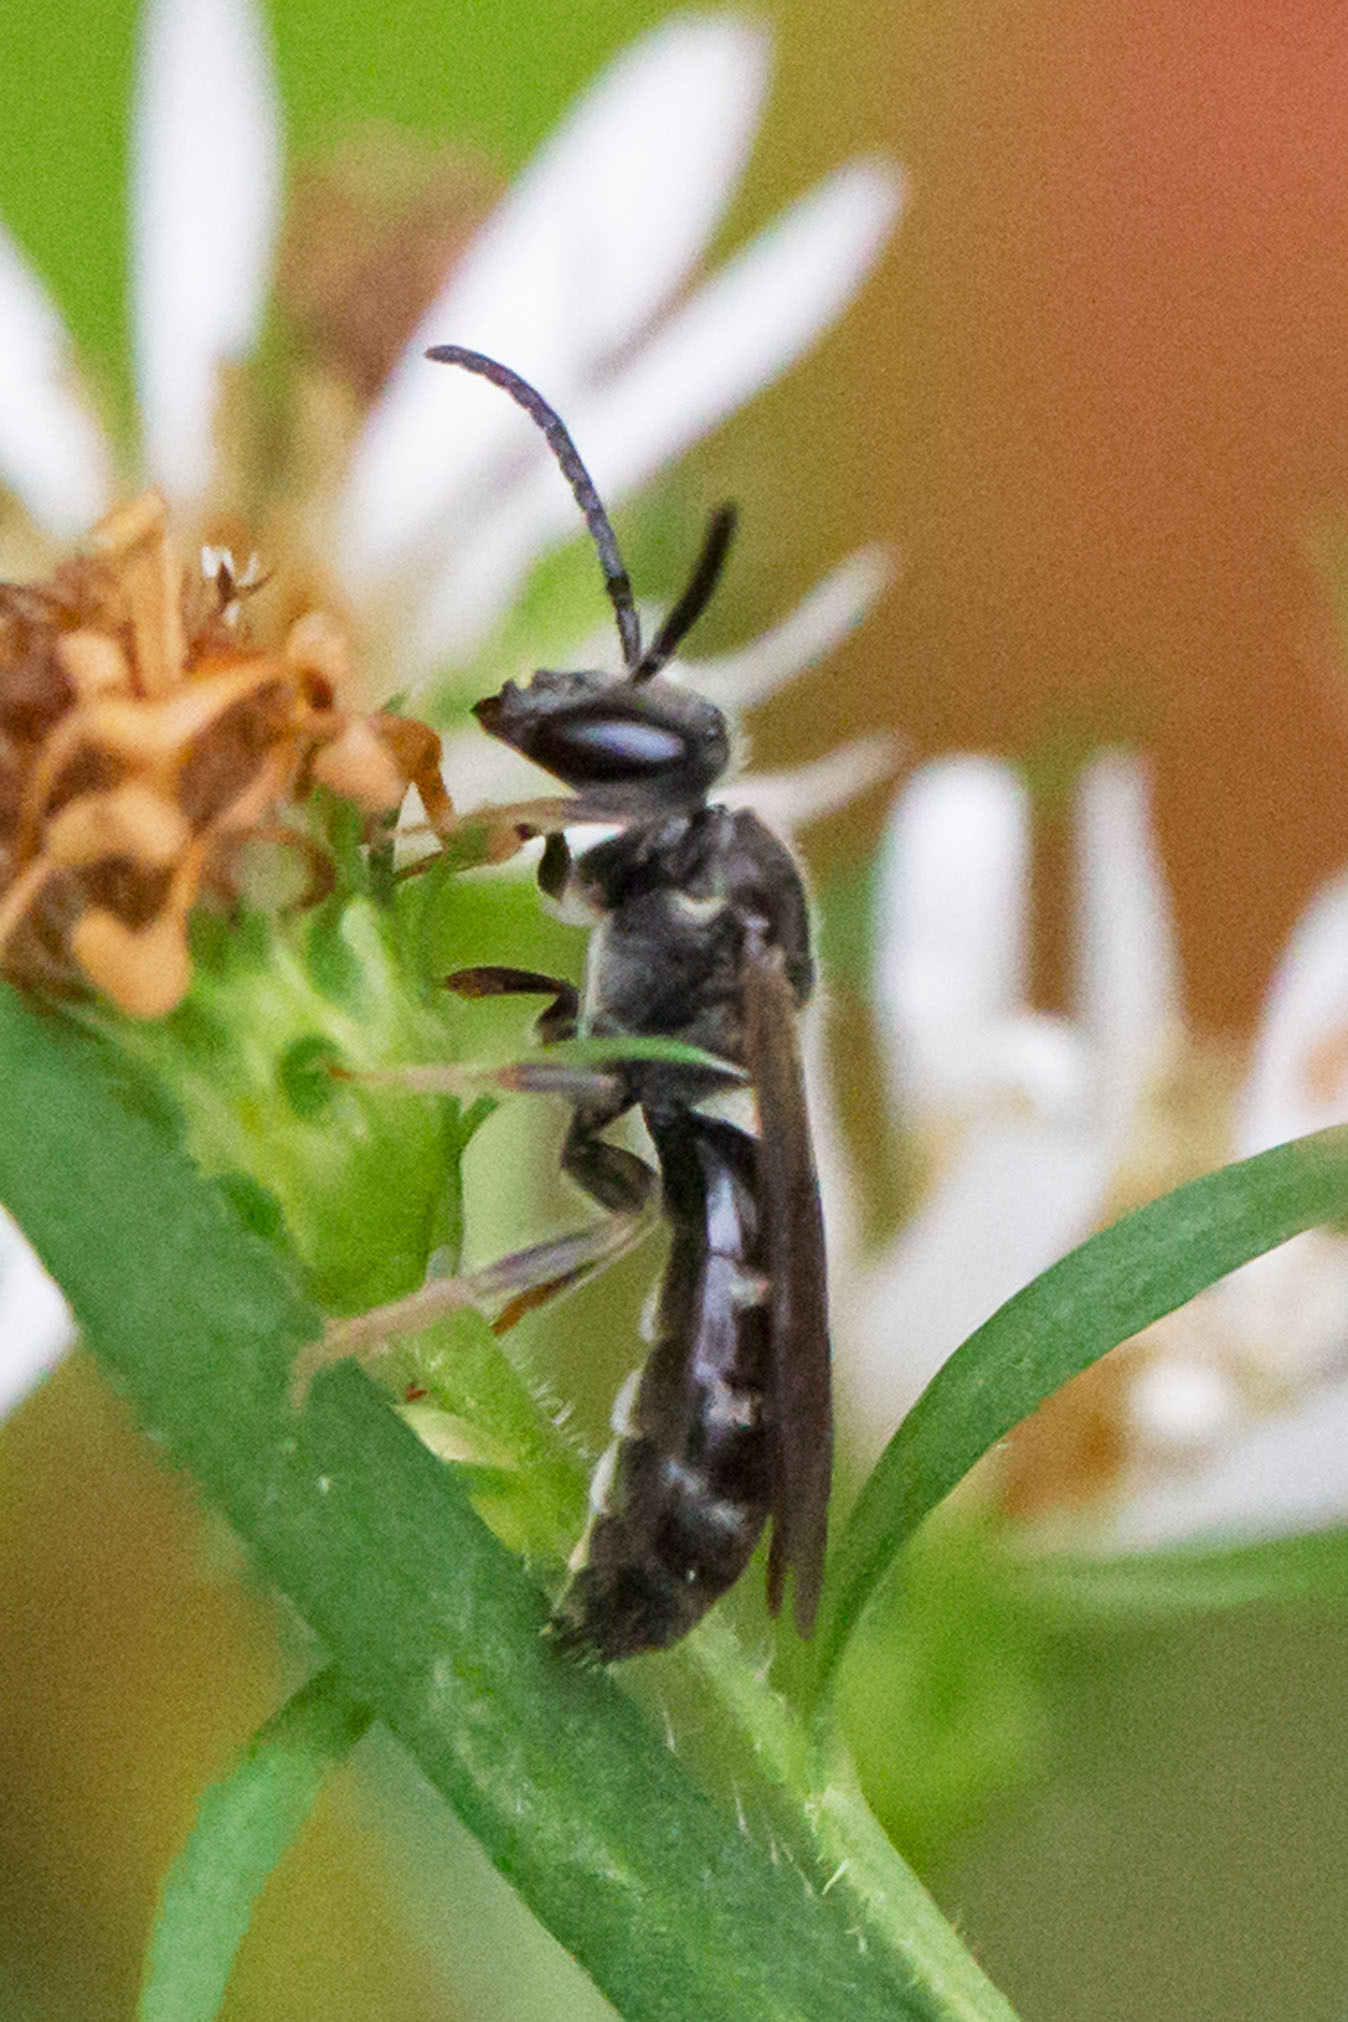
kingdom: Animalia
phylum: Arthropoda
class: Insecta
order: Hymenoptera
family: Halictidae
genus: Lasioglossum
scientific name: Lasioglossum fuscipenne
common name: Brown-winged sweat bee
